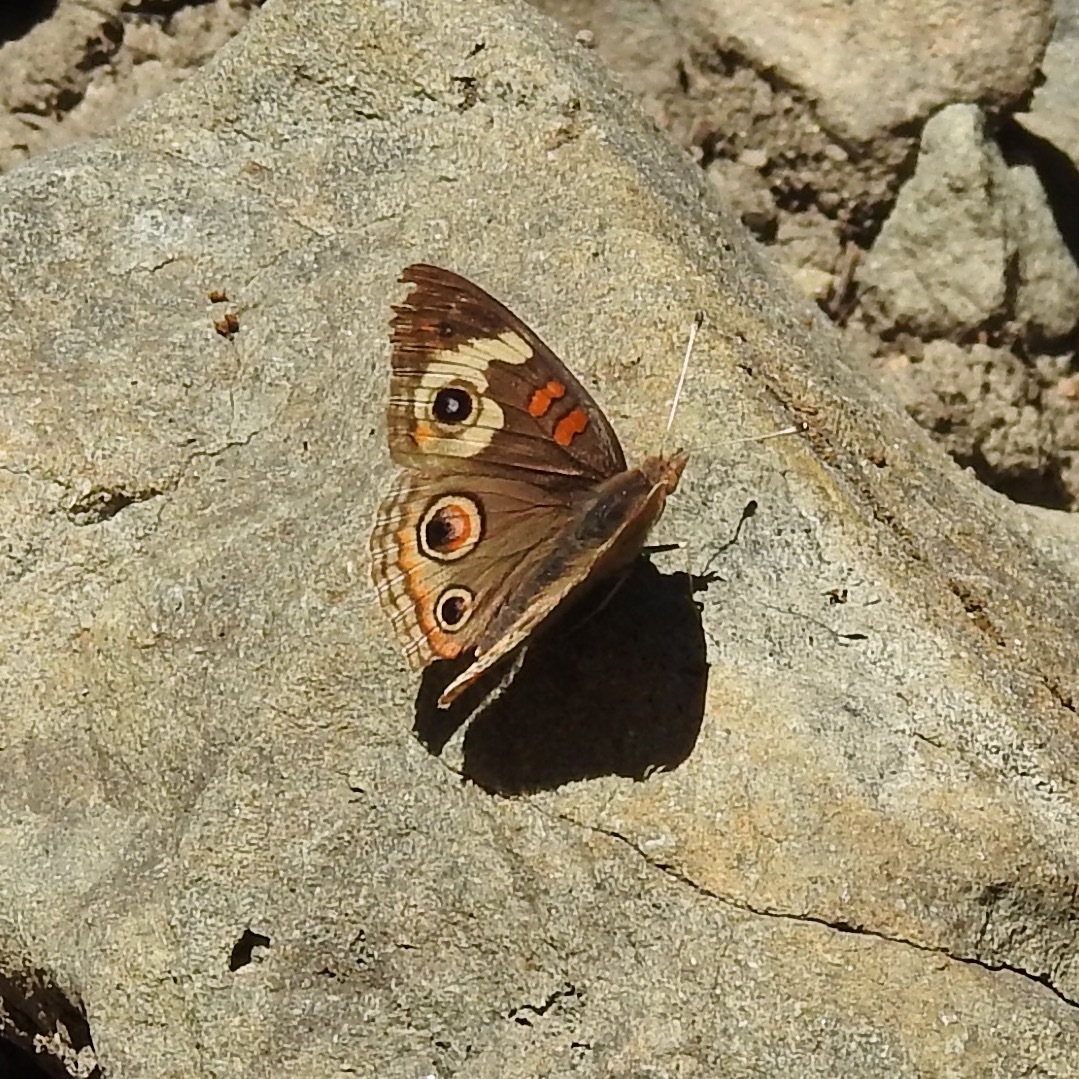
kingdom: Animalia
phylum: Arthropoda
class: Insecta
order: Lepidoptera
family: Nymphalidae
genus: Junonia
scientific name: Junonia grisea
